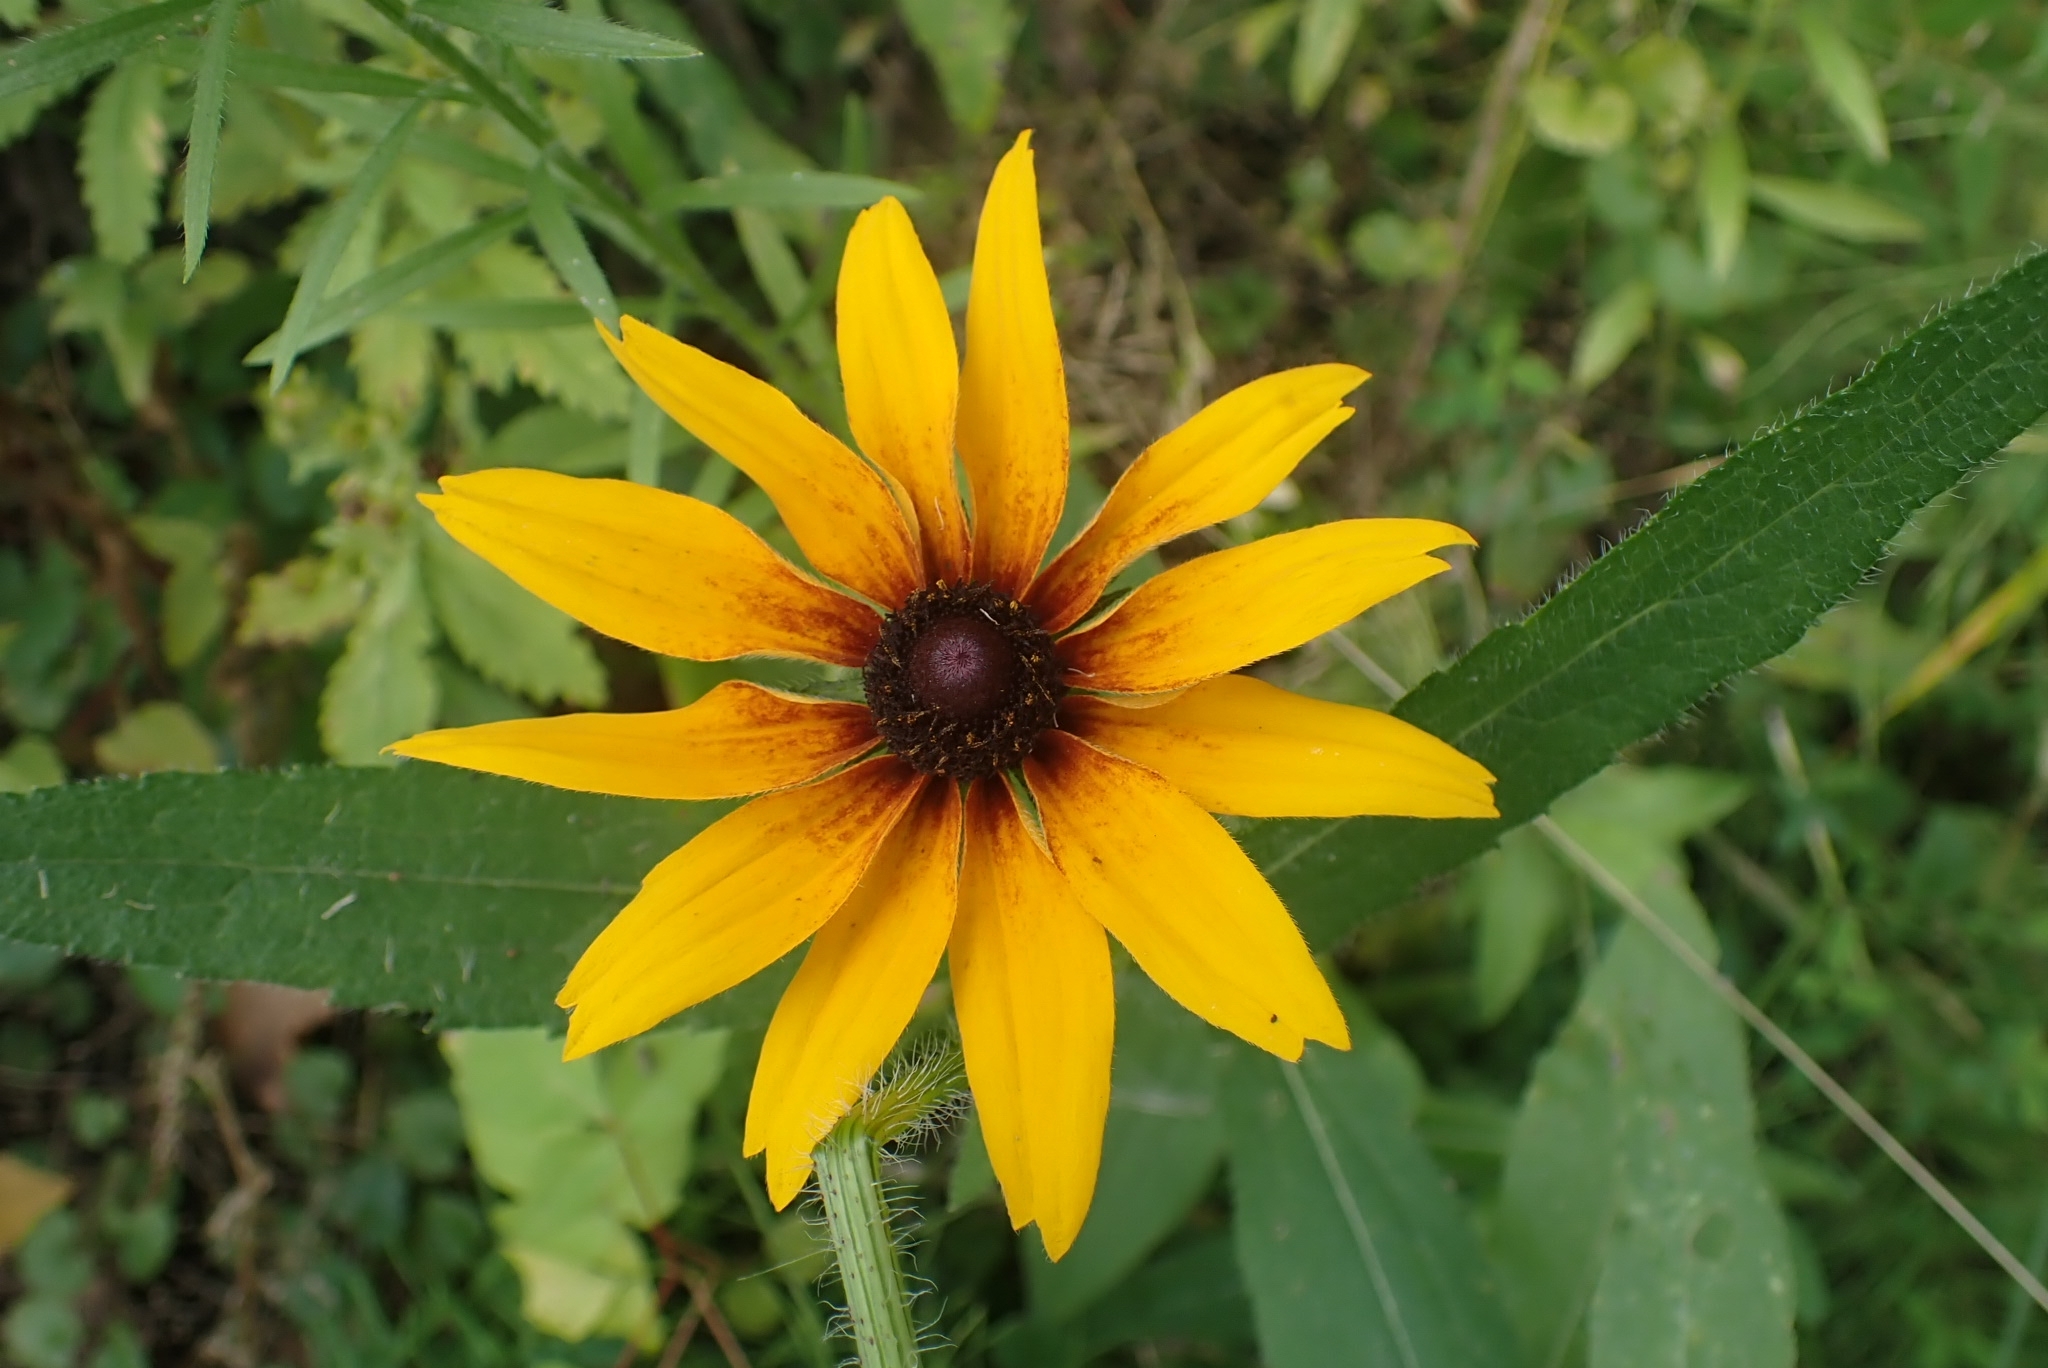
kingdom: Plantae
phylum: Tracheophyta
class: Magnoliopsida
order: Asterales
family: Asteraceae
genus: Rudbeckia
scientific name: Rudbeckia hirta
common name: Black-eyed-susan
